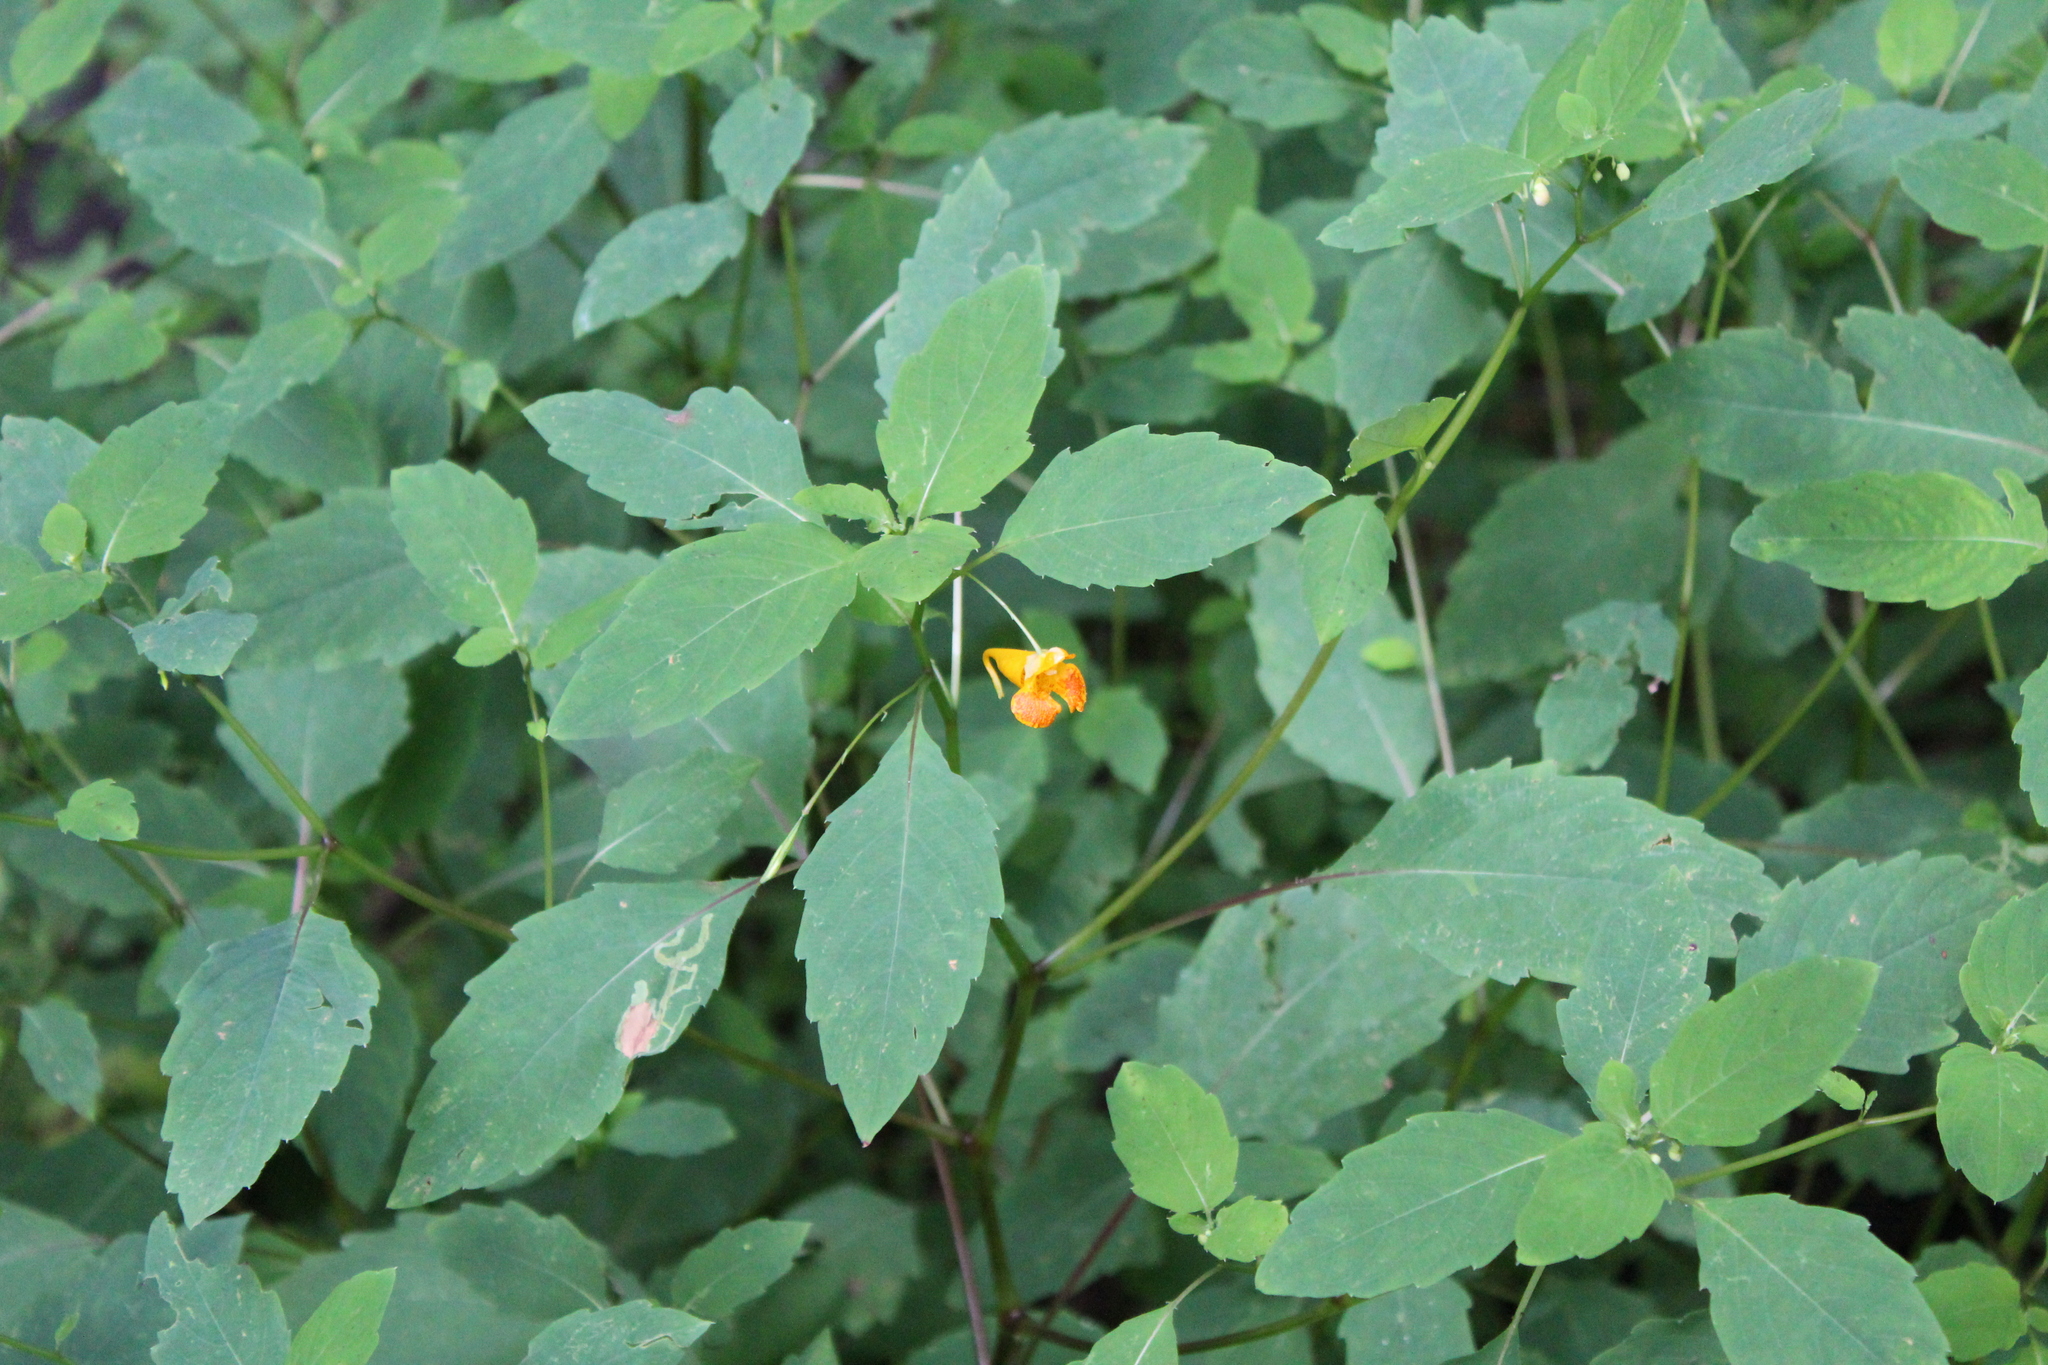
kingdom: Plantae
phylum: Tracheophyta
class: Magnoliopsida
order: Ericales
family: Balsaminaceae
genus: Impatiens
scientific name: Impatiens capensis
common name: Orange balsam
